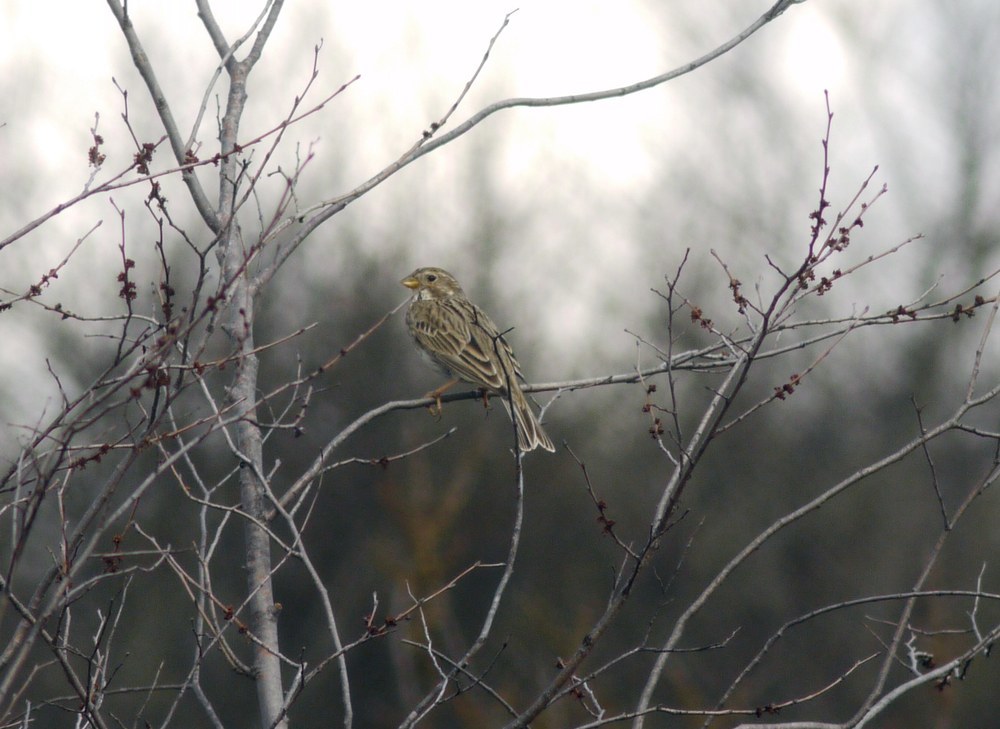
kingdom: Animalia
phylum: Chordata
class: Aves
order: Passeriformes
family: Emberizidae
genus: Emberiza
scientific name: Emberiza calandra
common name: Corn bunting
